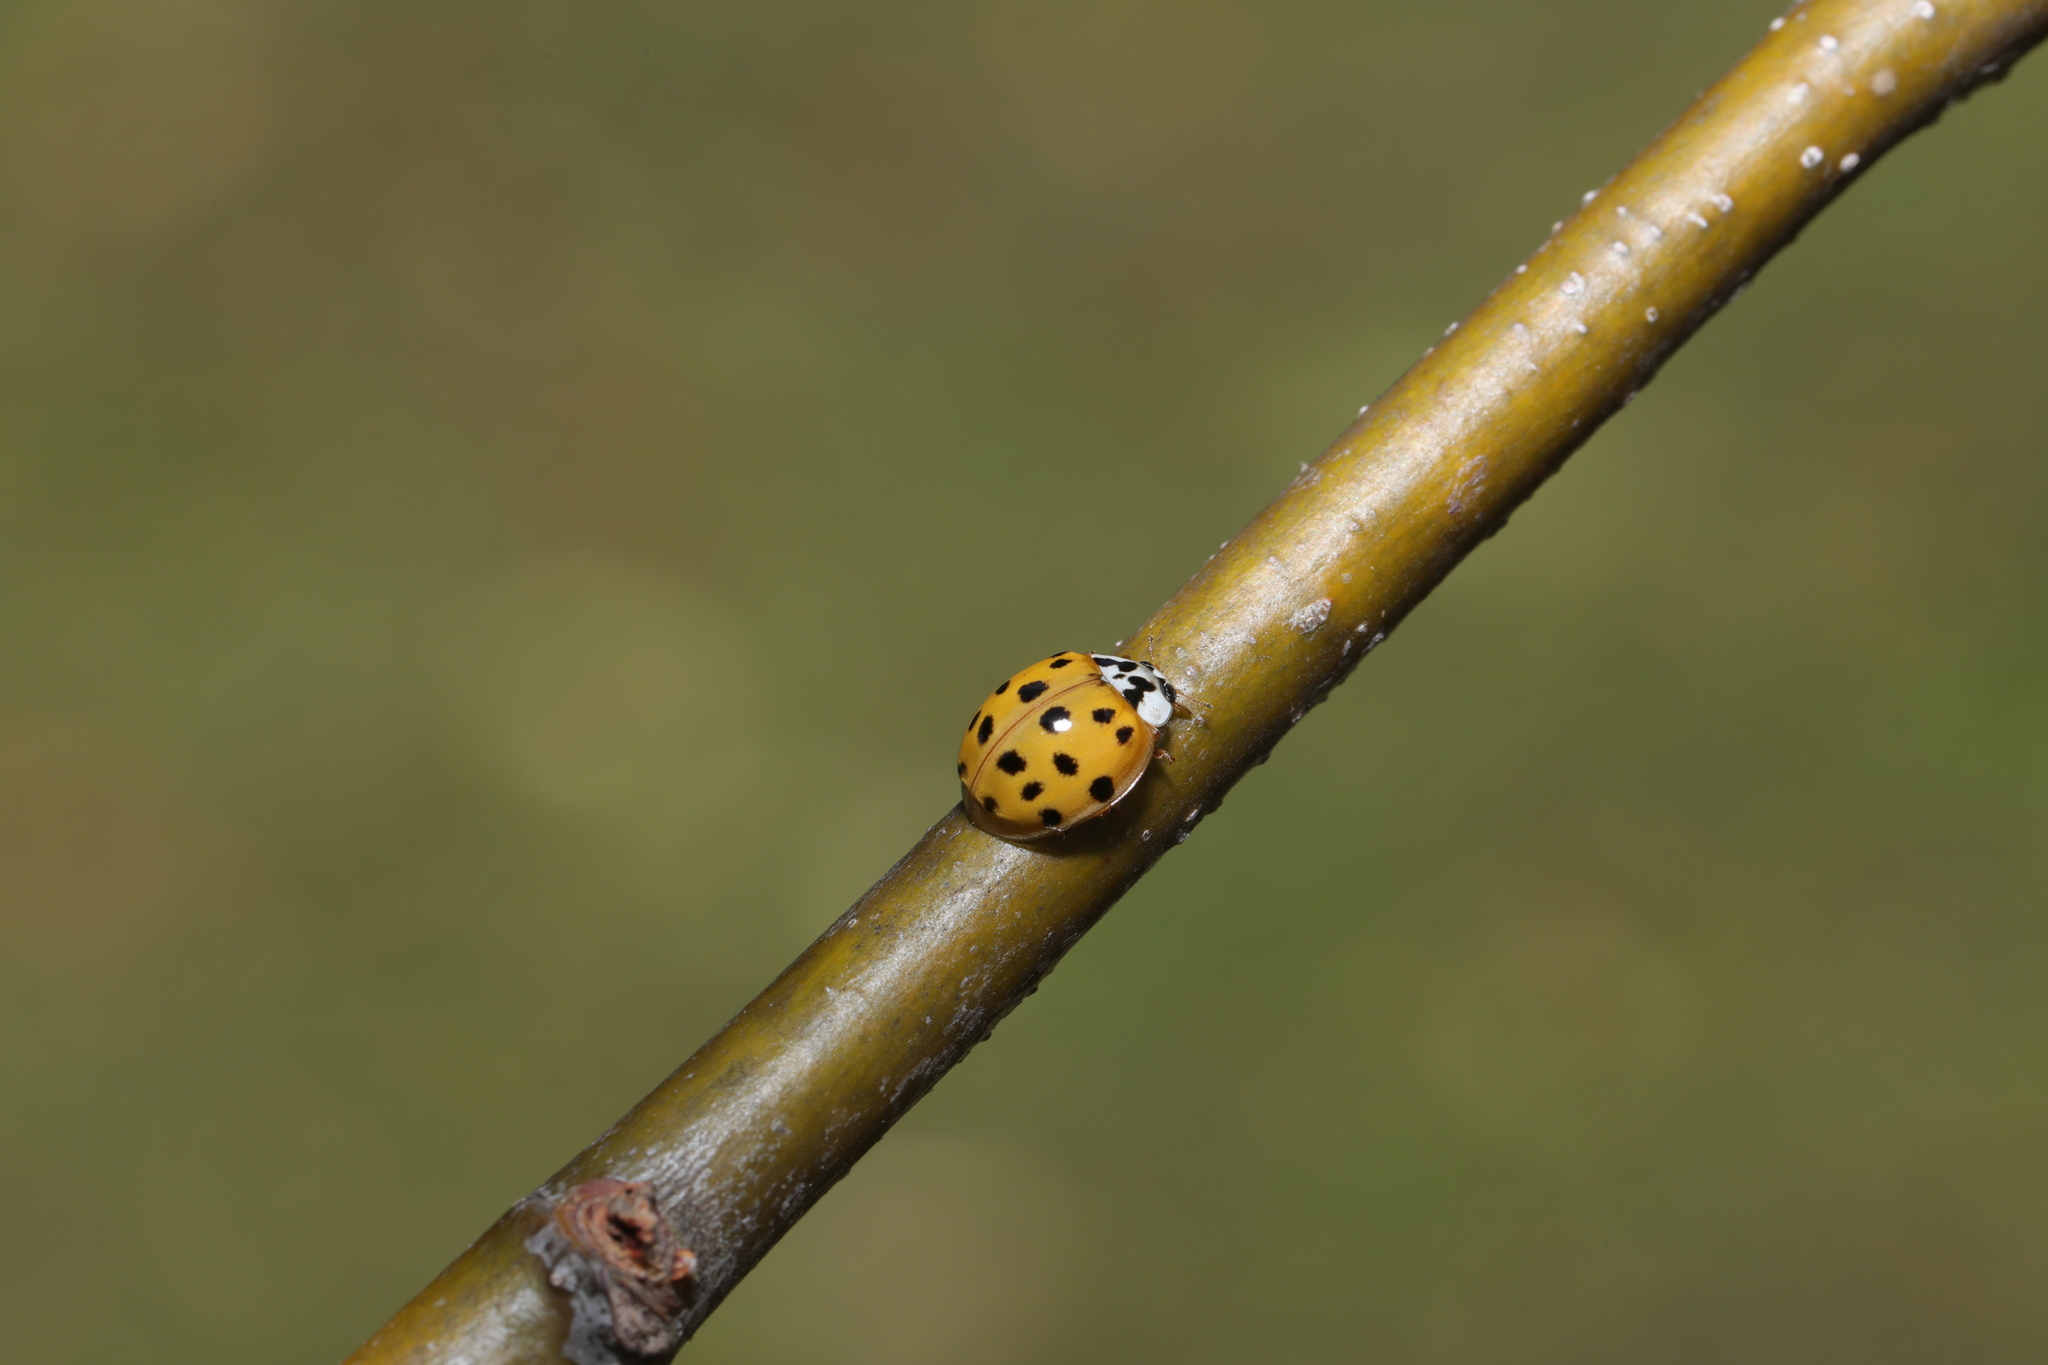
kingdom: Animalia
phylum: Arthropoda
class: Insecta
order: Coleoptera
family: Coccinellidae
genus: Harmonia
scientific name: Harmonia axyridis
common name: Harlequin ladybird
